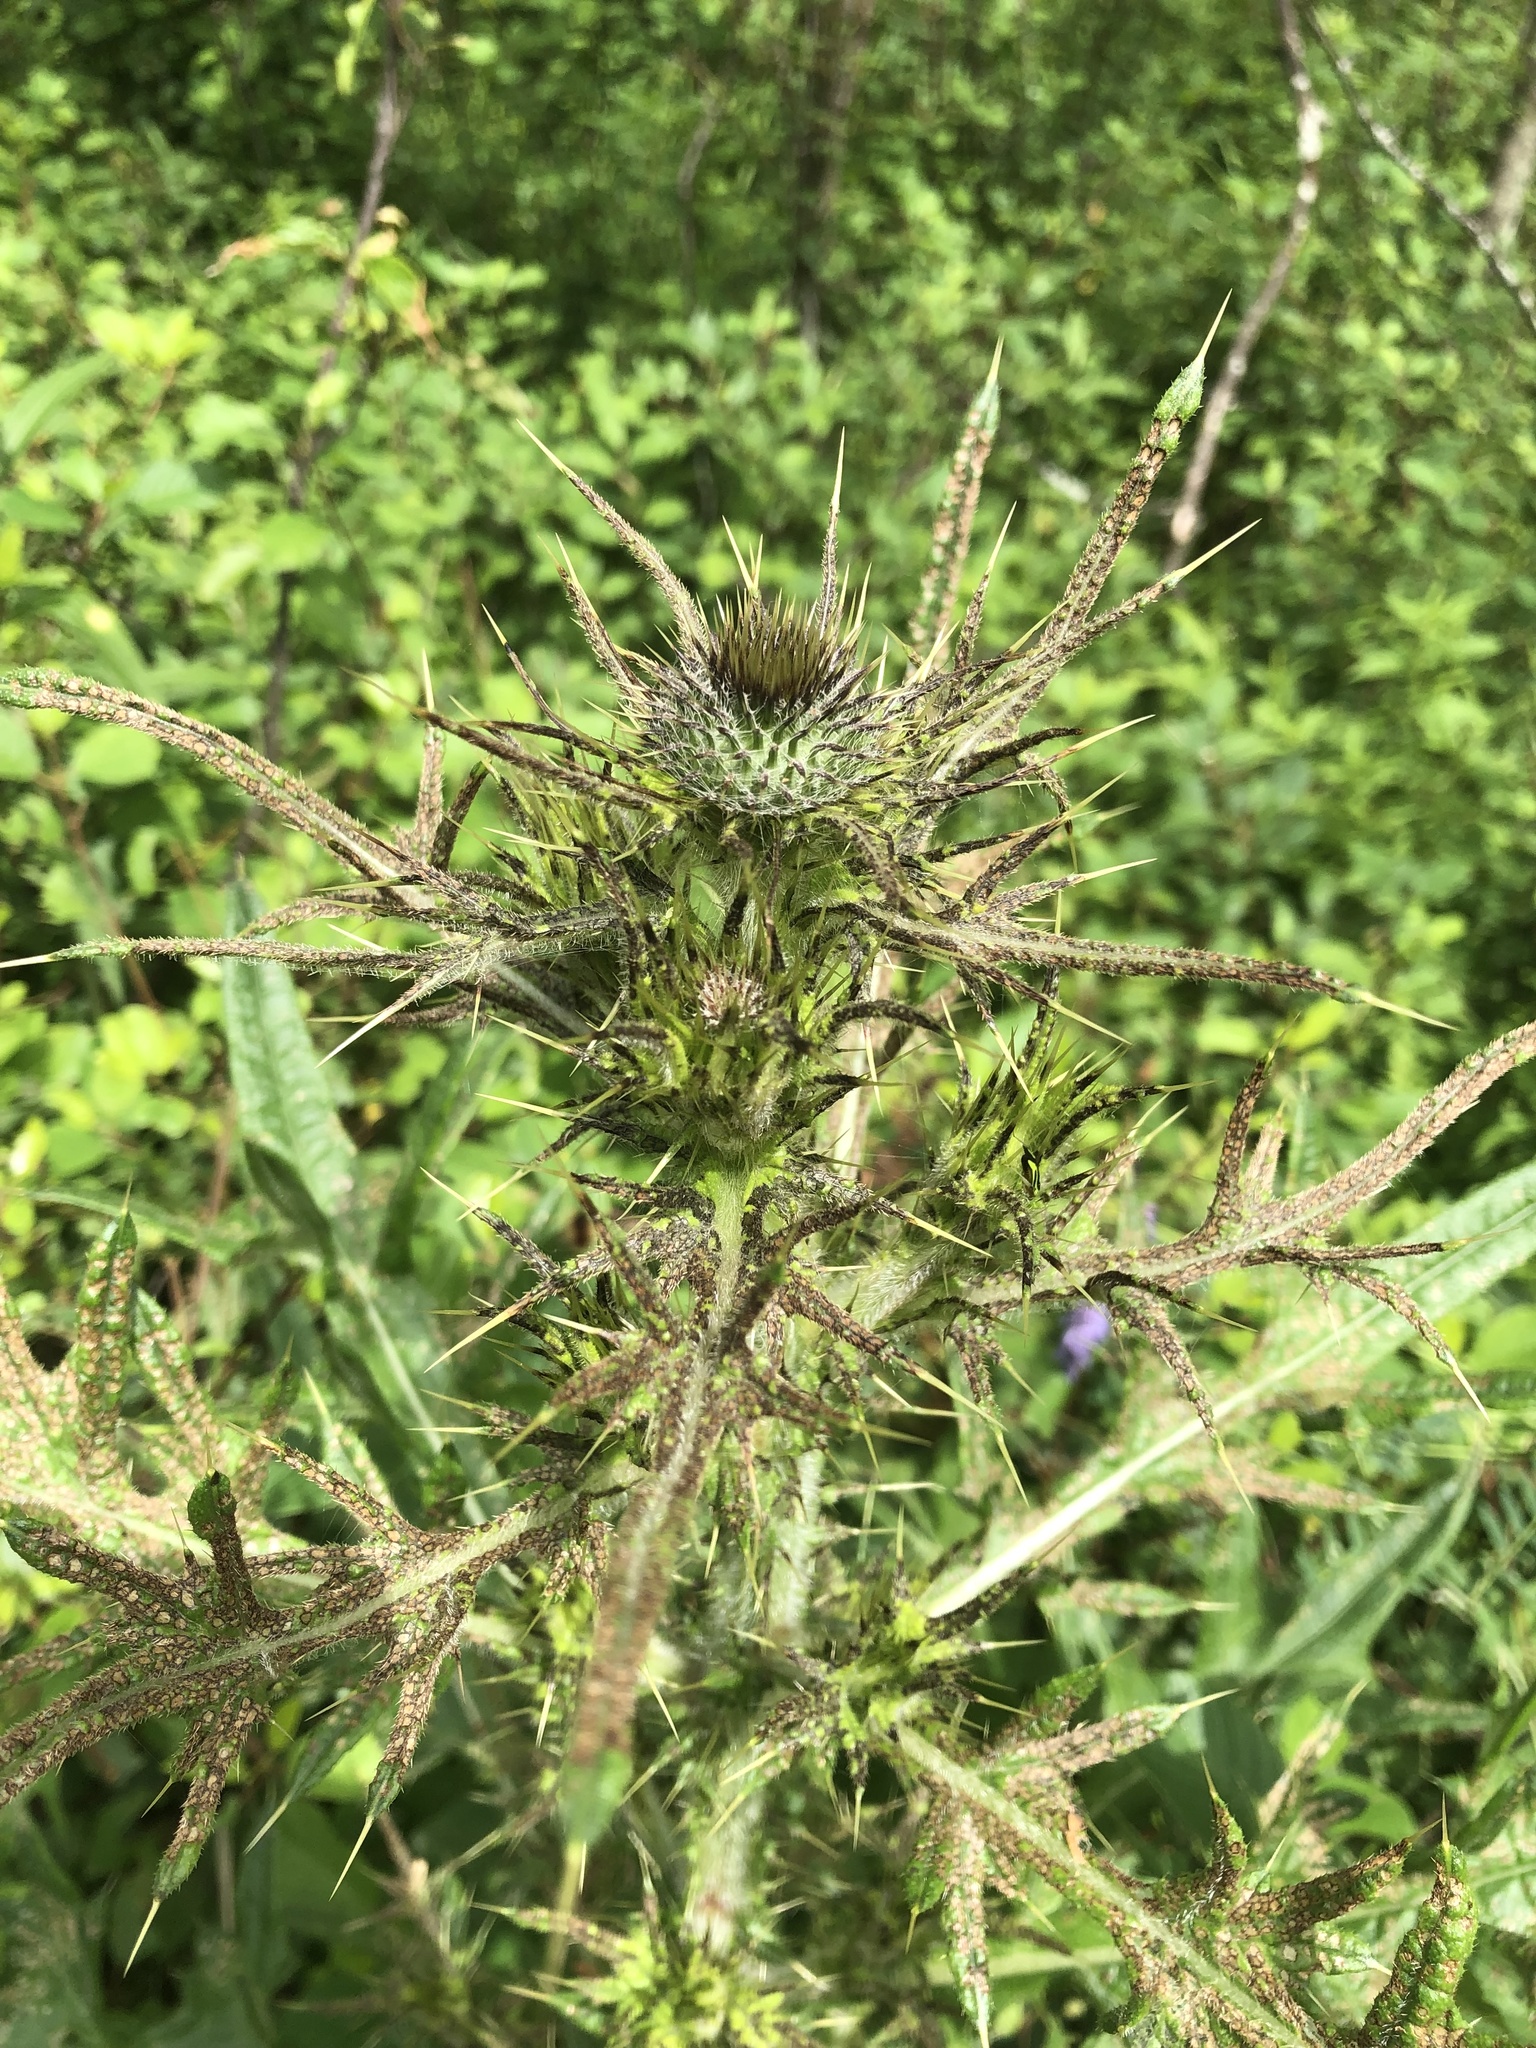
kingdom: Plantae
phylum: Tracheophyta
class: Magnoliopsida
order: Asterales
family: Asteraceae
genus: Cirsium
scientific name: Cirsium vulgare
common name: Bull thistle
